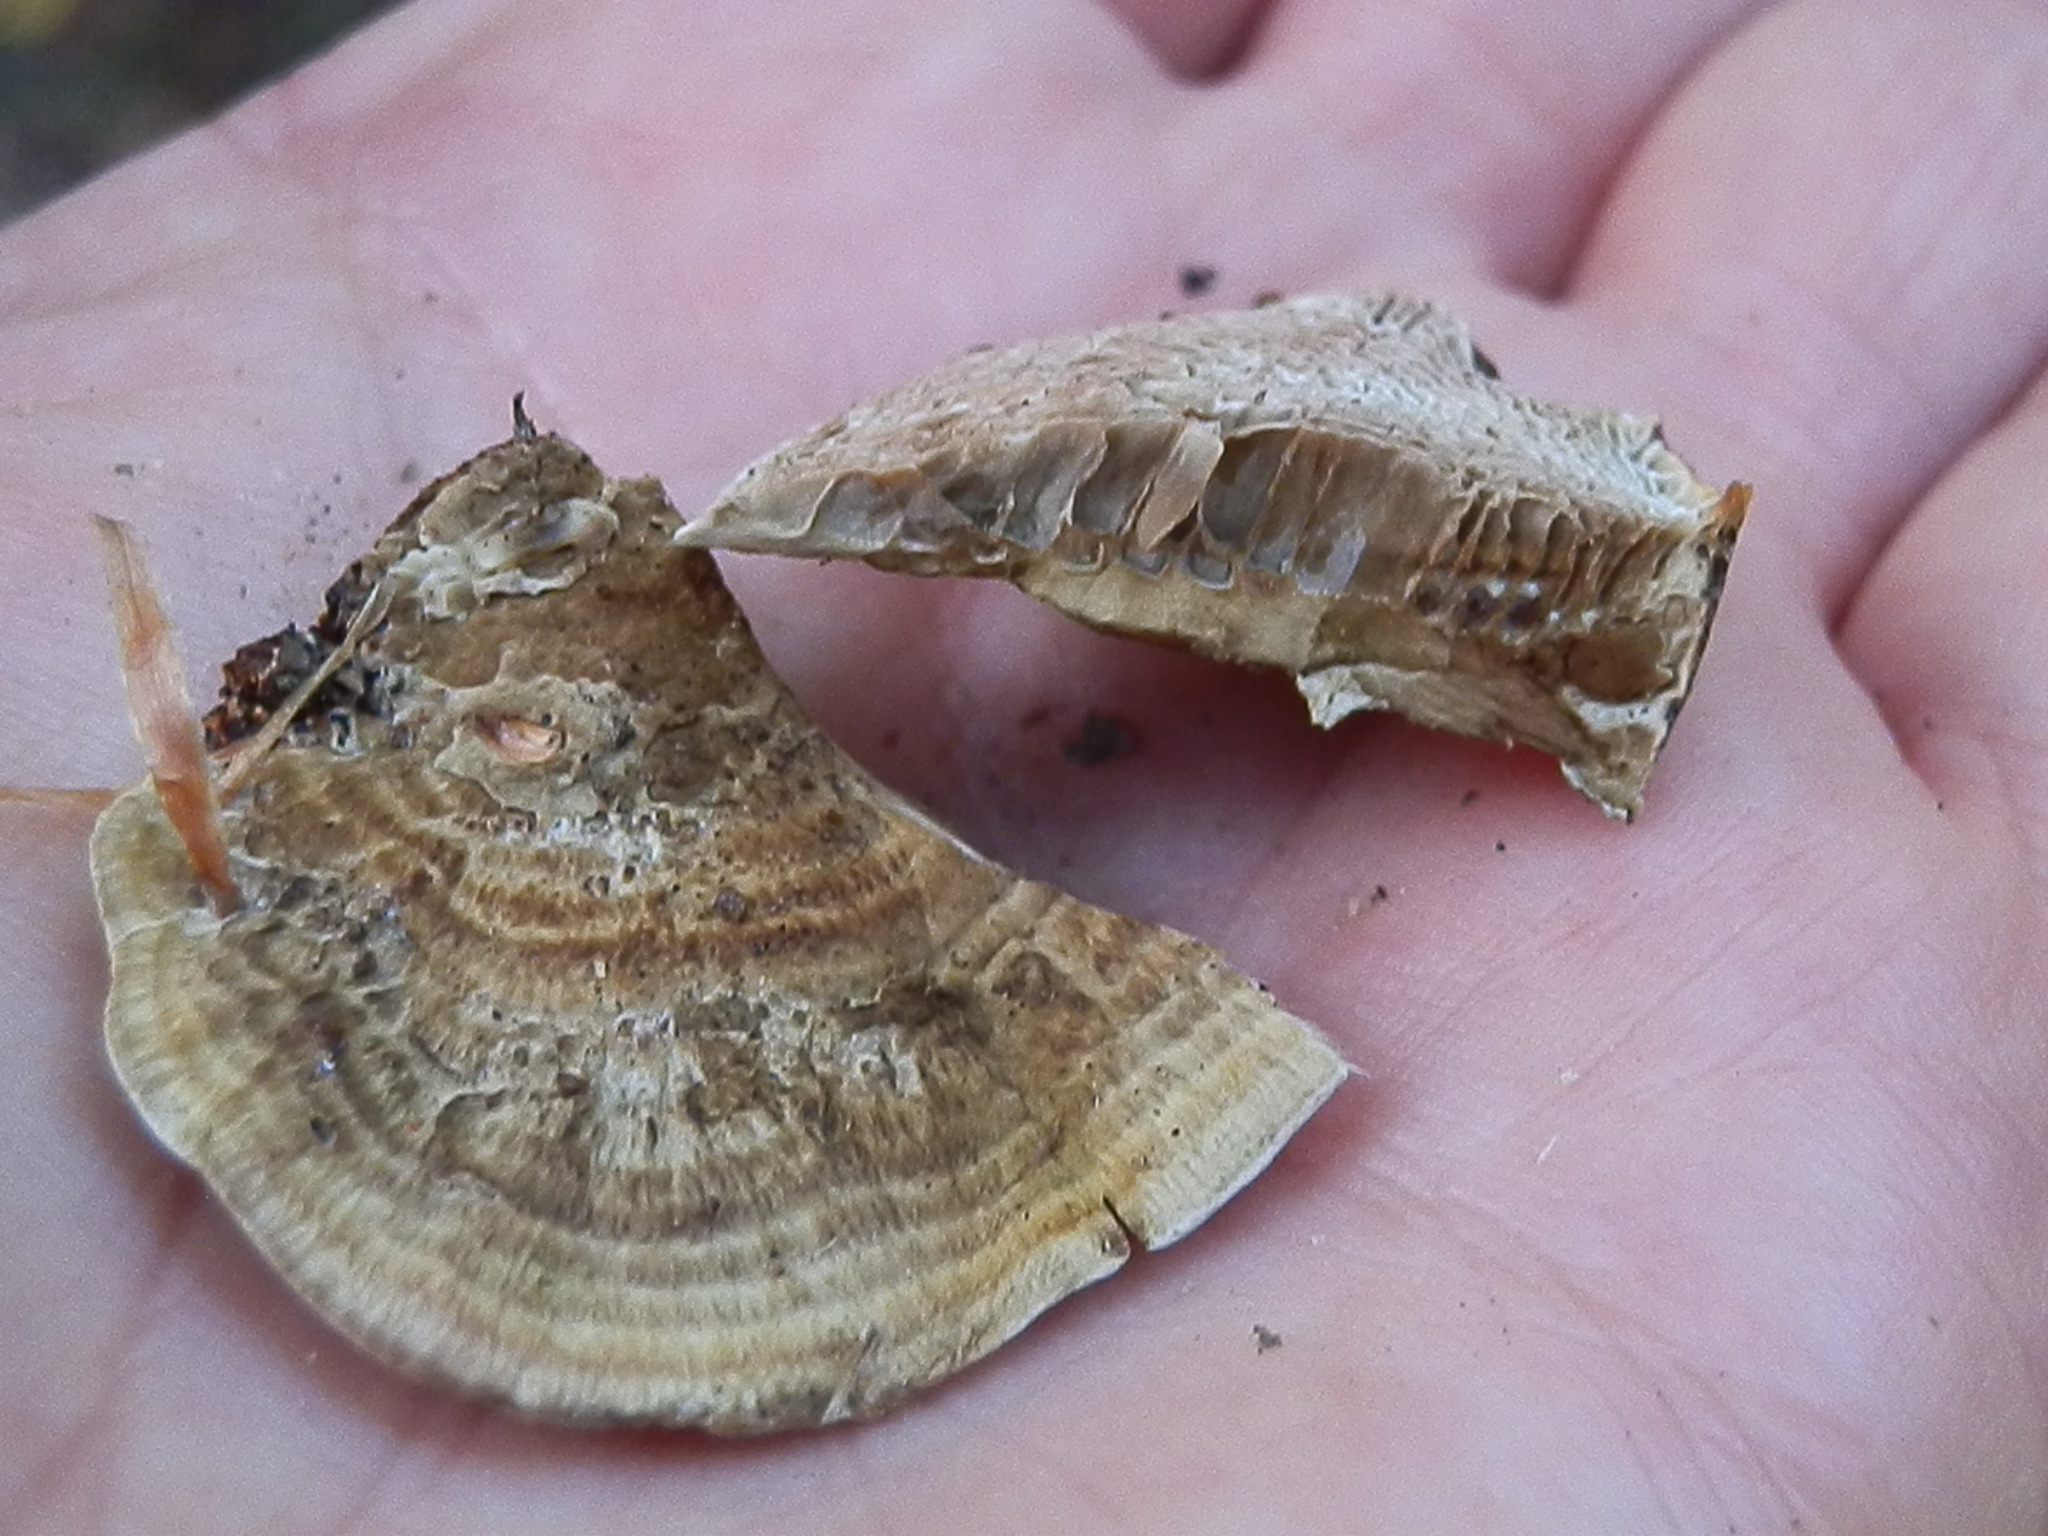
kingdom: Fungi
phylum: Basidiomycota
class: Agaricomycetes
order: Polyporales
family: Polyporaceae
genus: Daedaleopsis
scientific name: Daedaleopsis confragosa
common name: Blushing bracket
